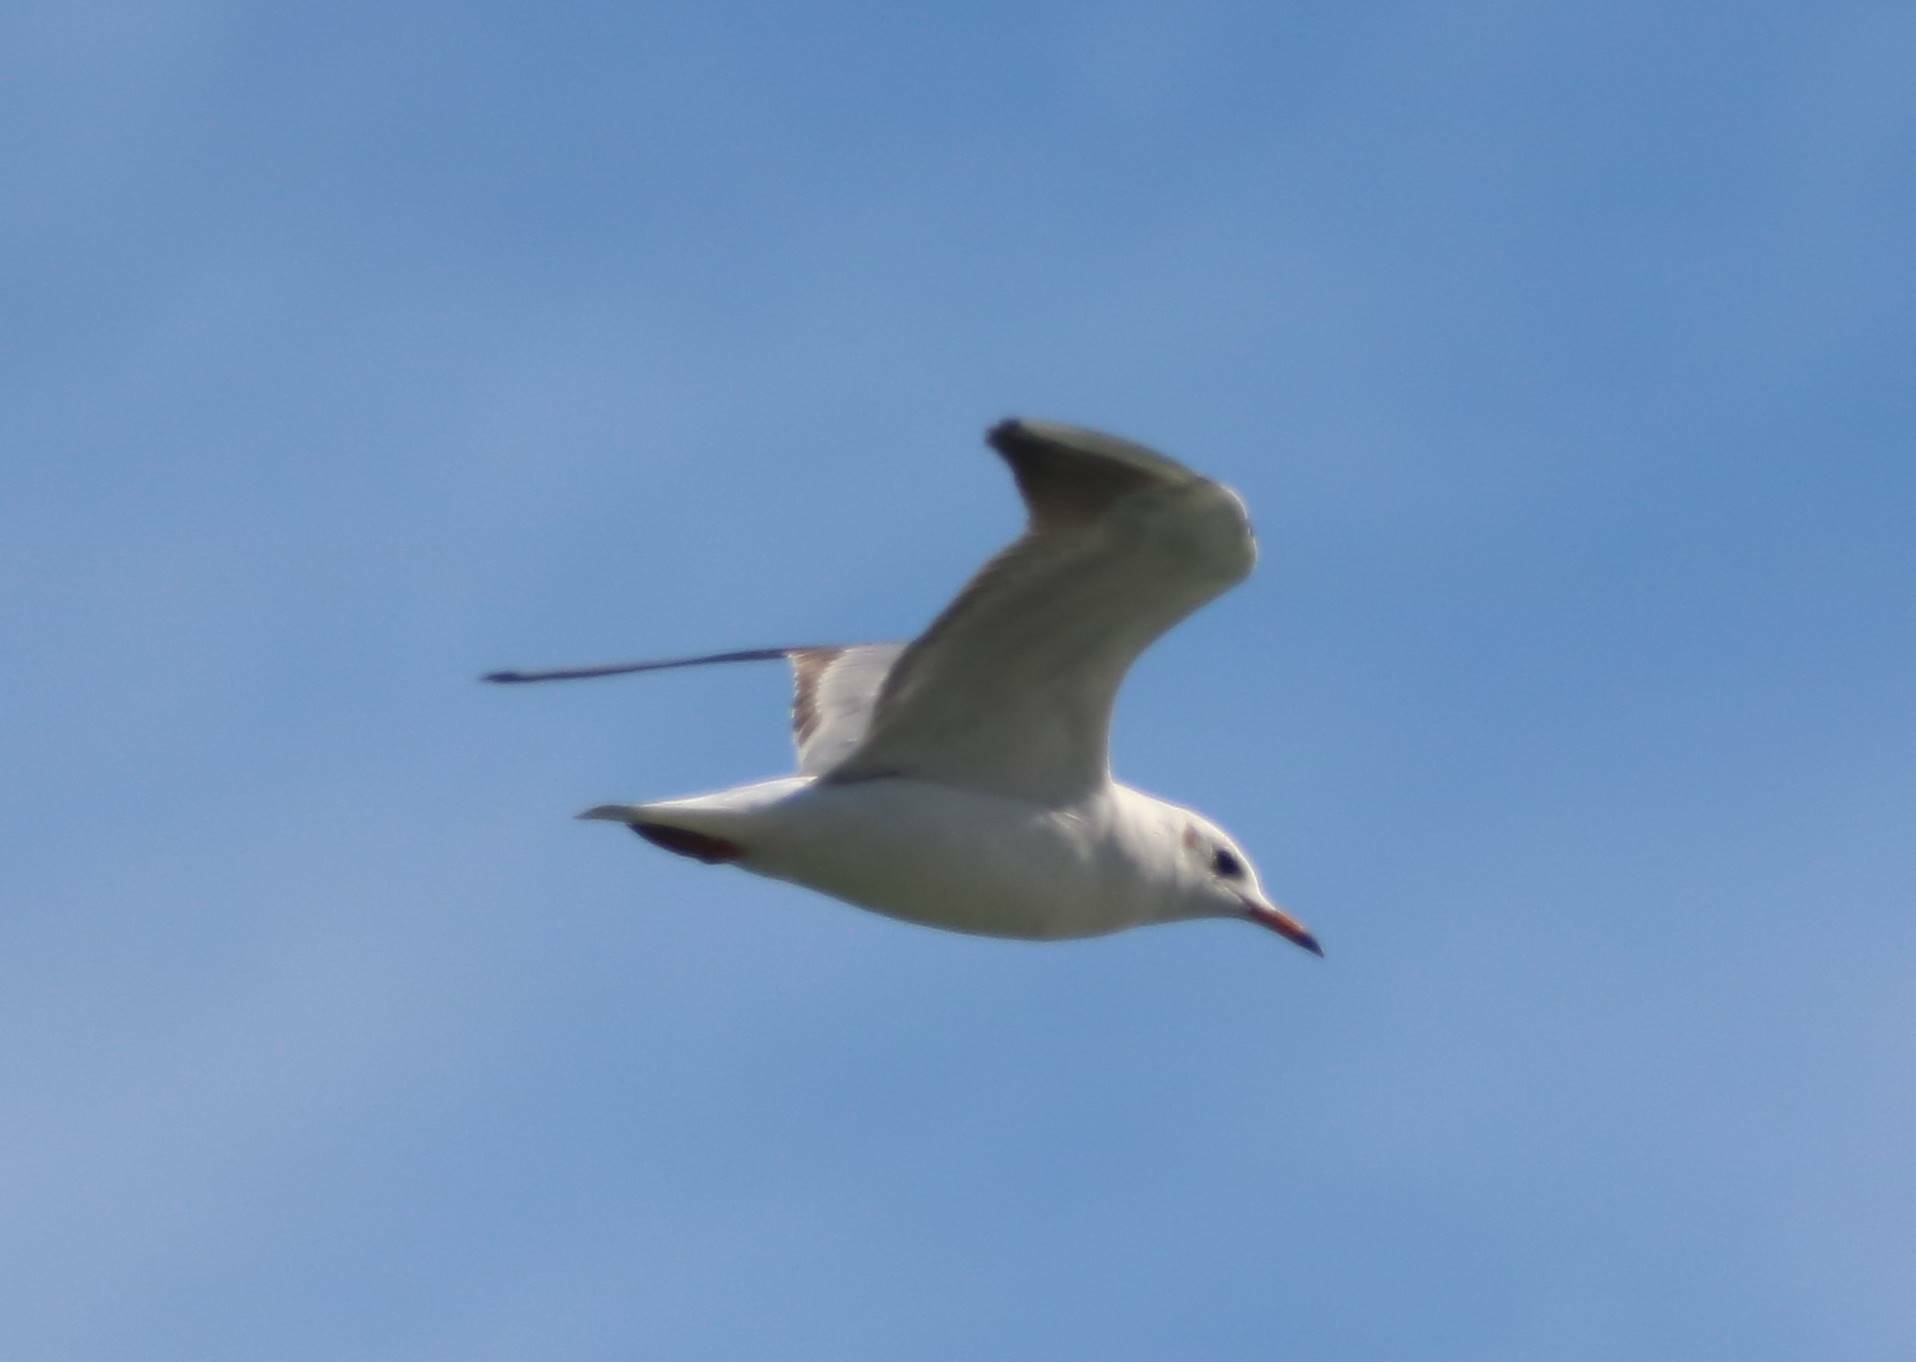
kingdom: Animalia
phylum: Chordata
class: Aves
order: Charadriiformes
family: Laridae
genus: Chroicocephalus
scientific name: Chroicocephalus ridibundus
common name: Black-headed gull
